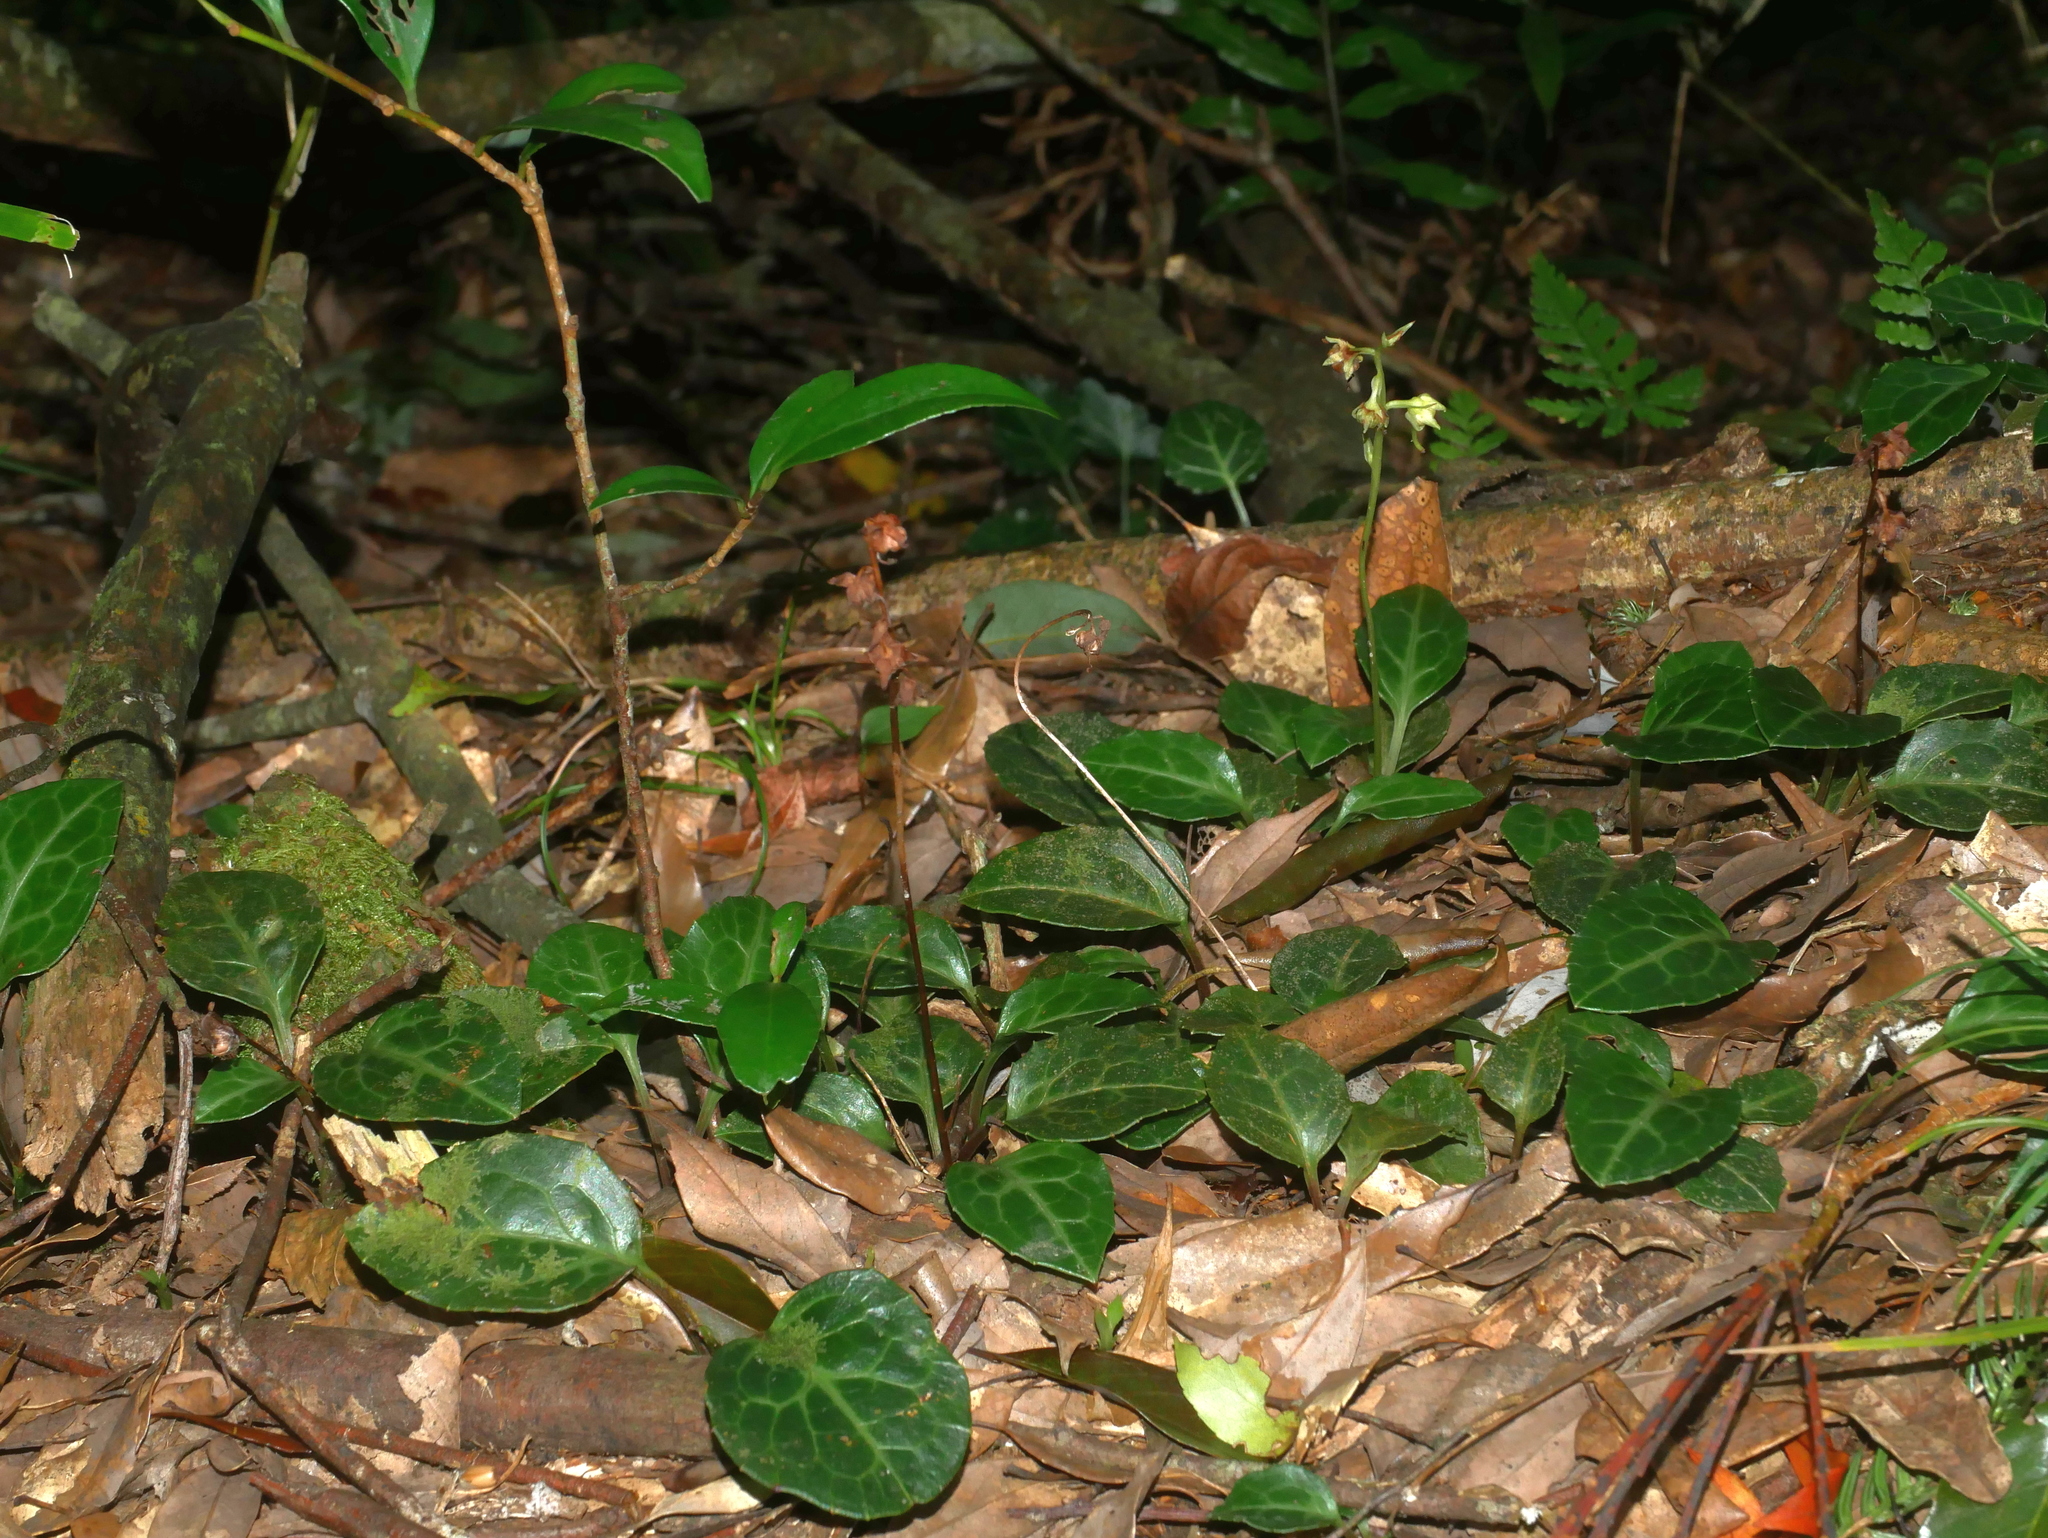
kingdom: Plantae
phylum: Tracheophyta
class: Magnoliopsida
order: Ericales
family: Ericaceae
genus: Pyrola
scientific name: Pyrola alboreticulata
